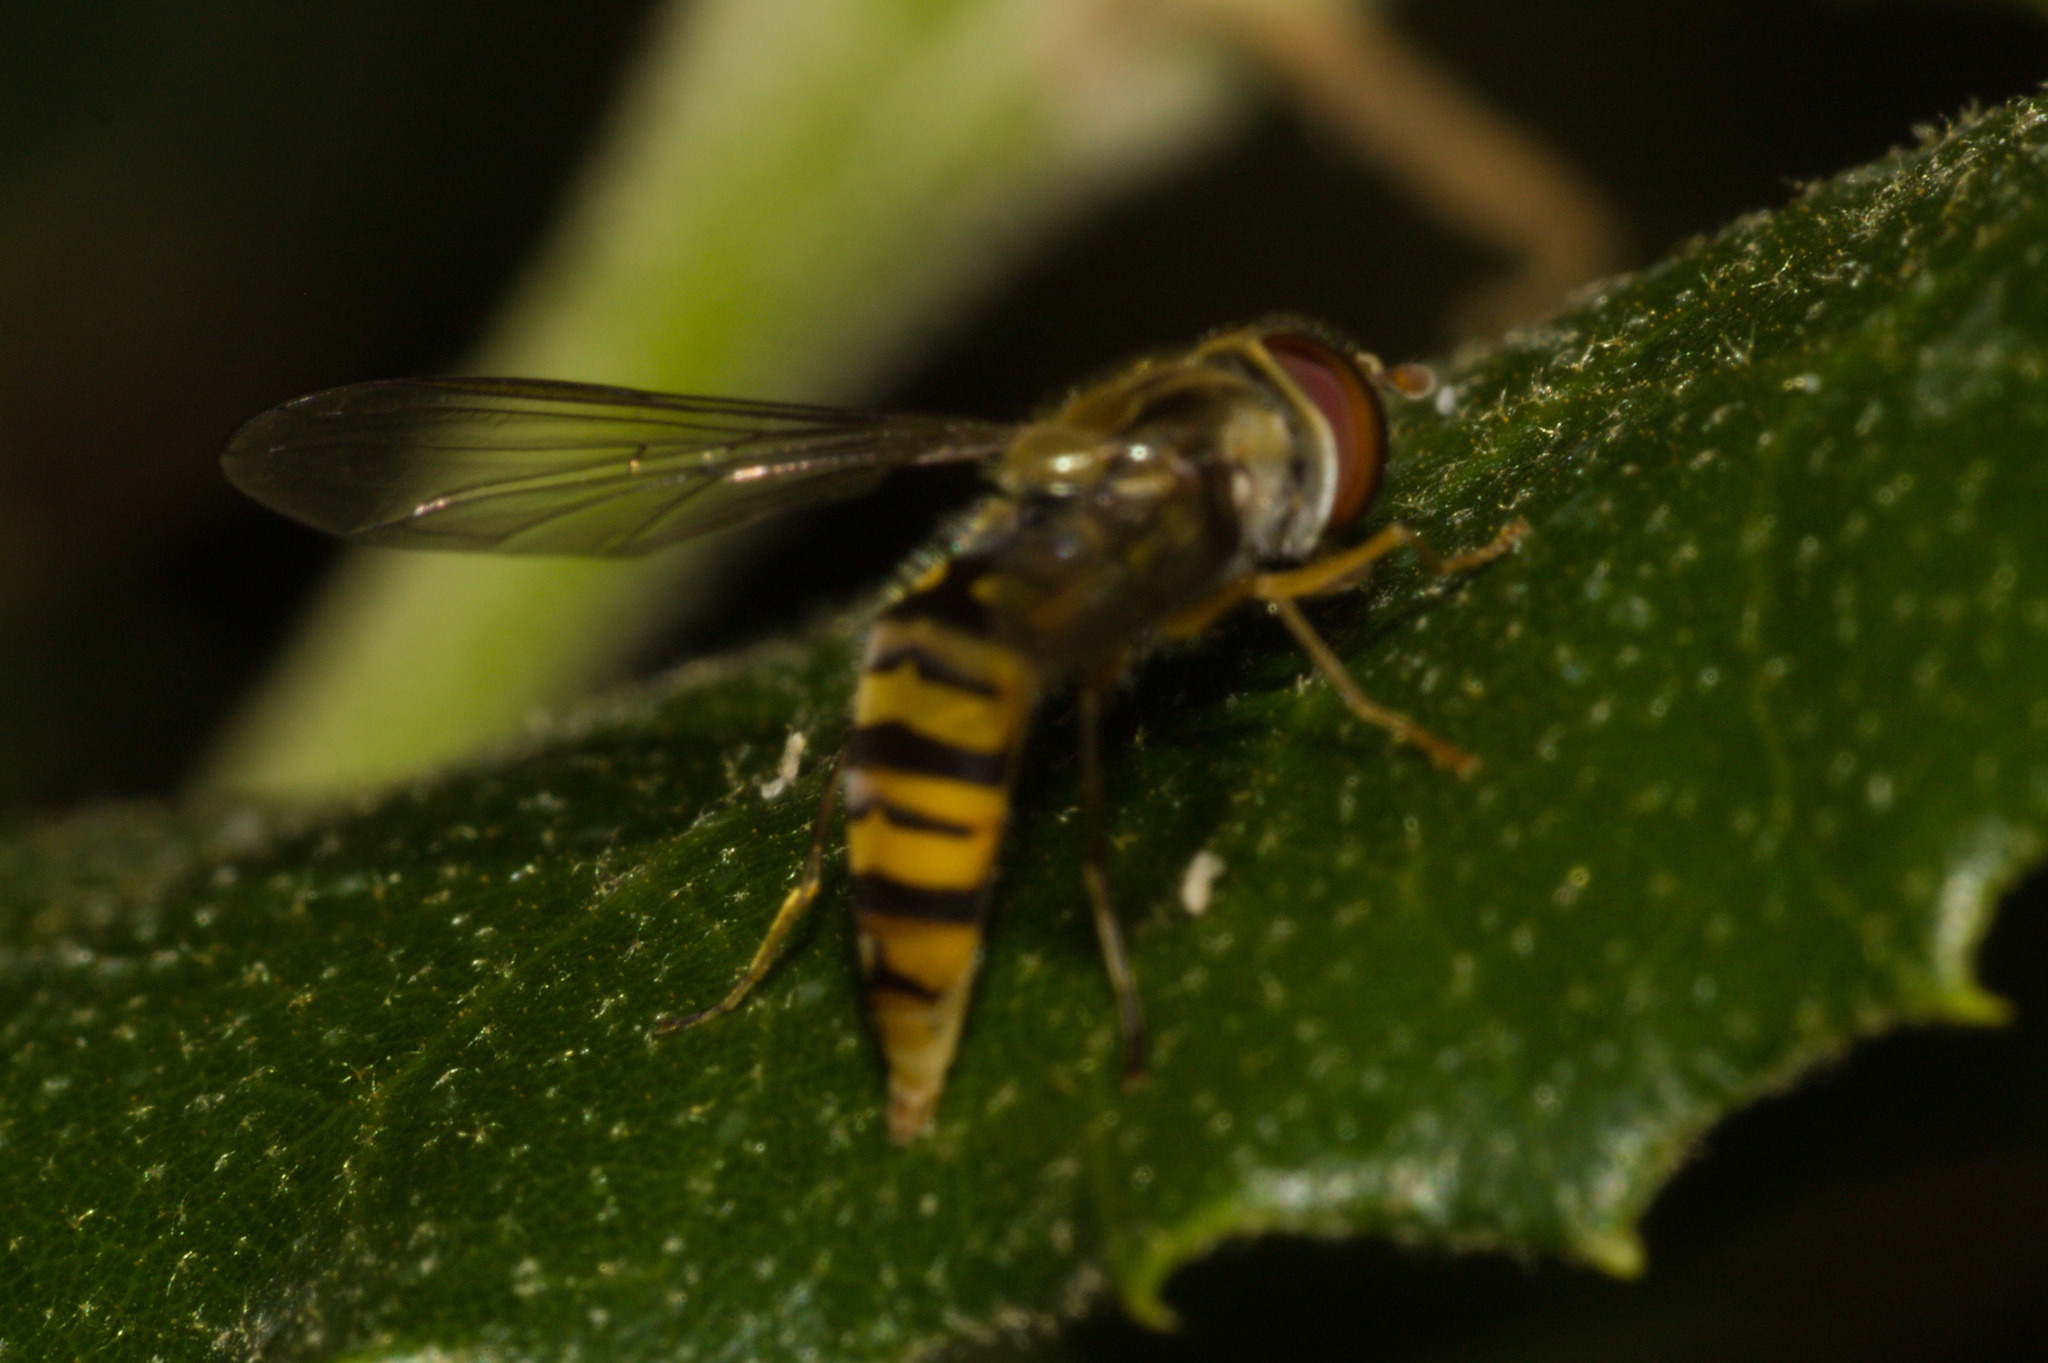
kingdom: Animalia
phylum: Arthropoda
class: Insecta
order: Diptera
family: Syrphidae
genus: Episyrphus
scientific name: Episyrphus balteatus
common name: Marmalade hoverfly
